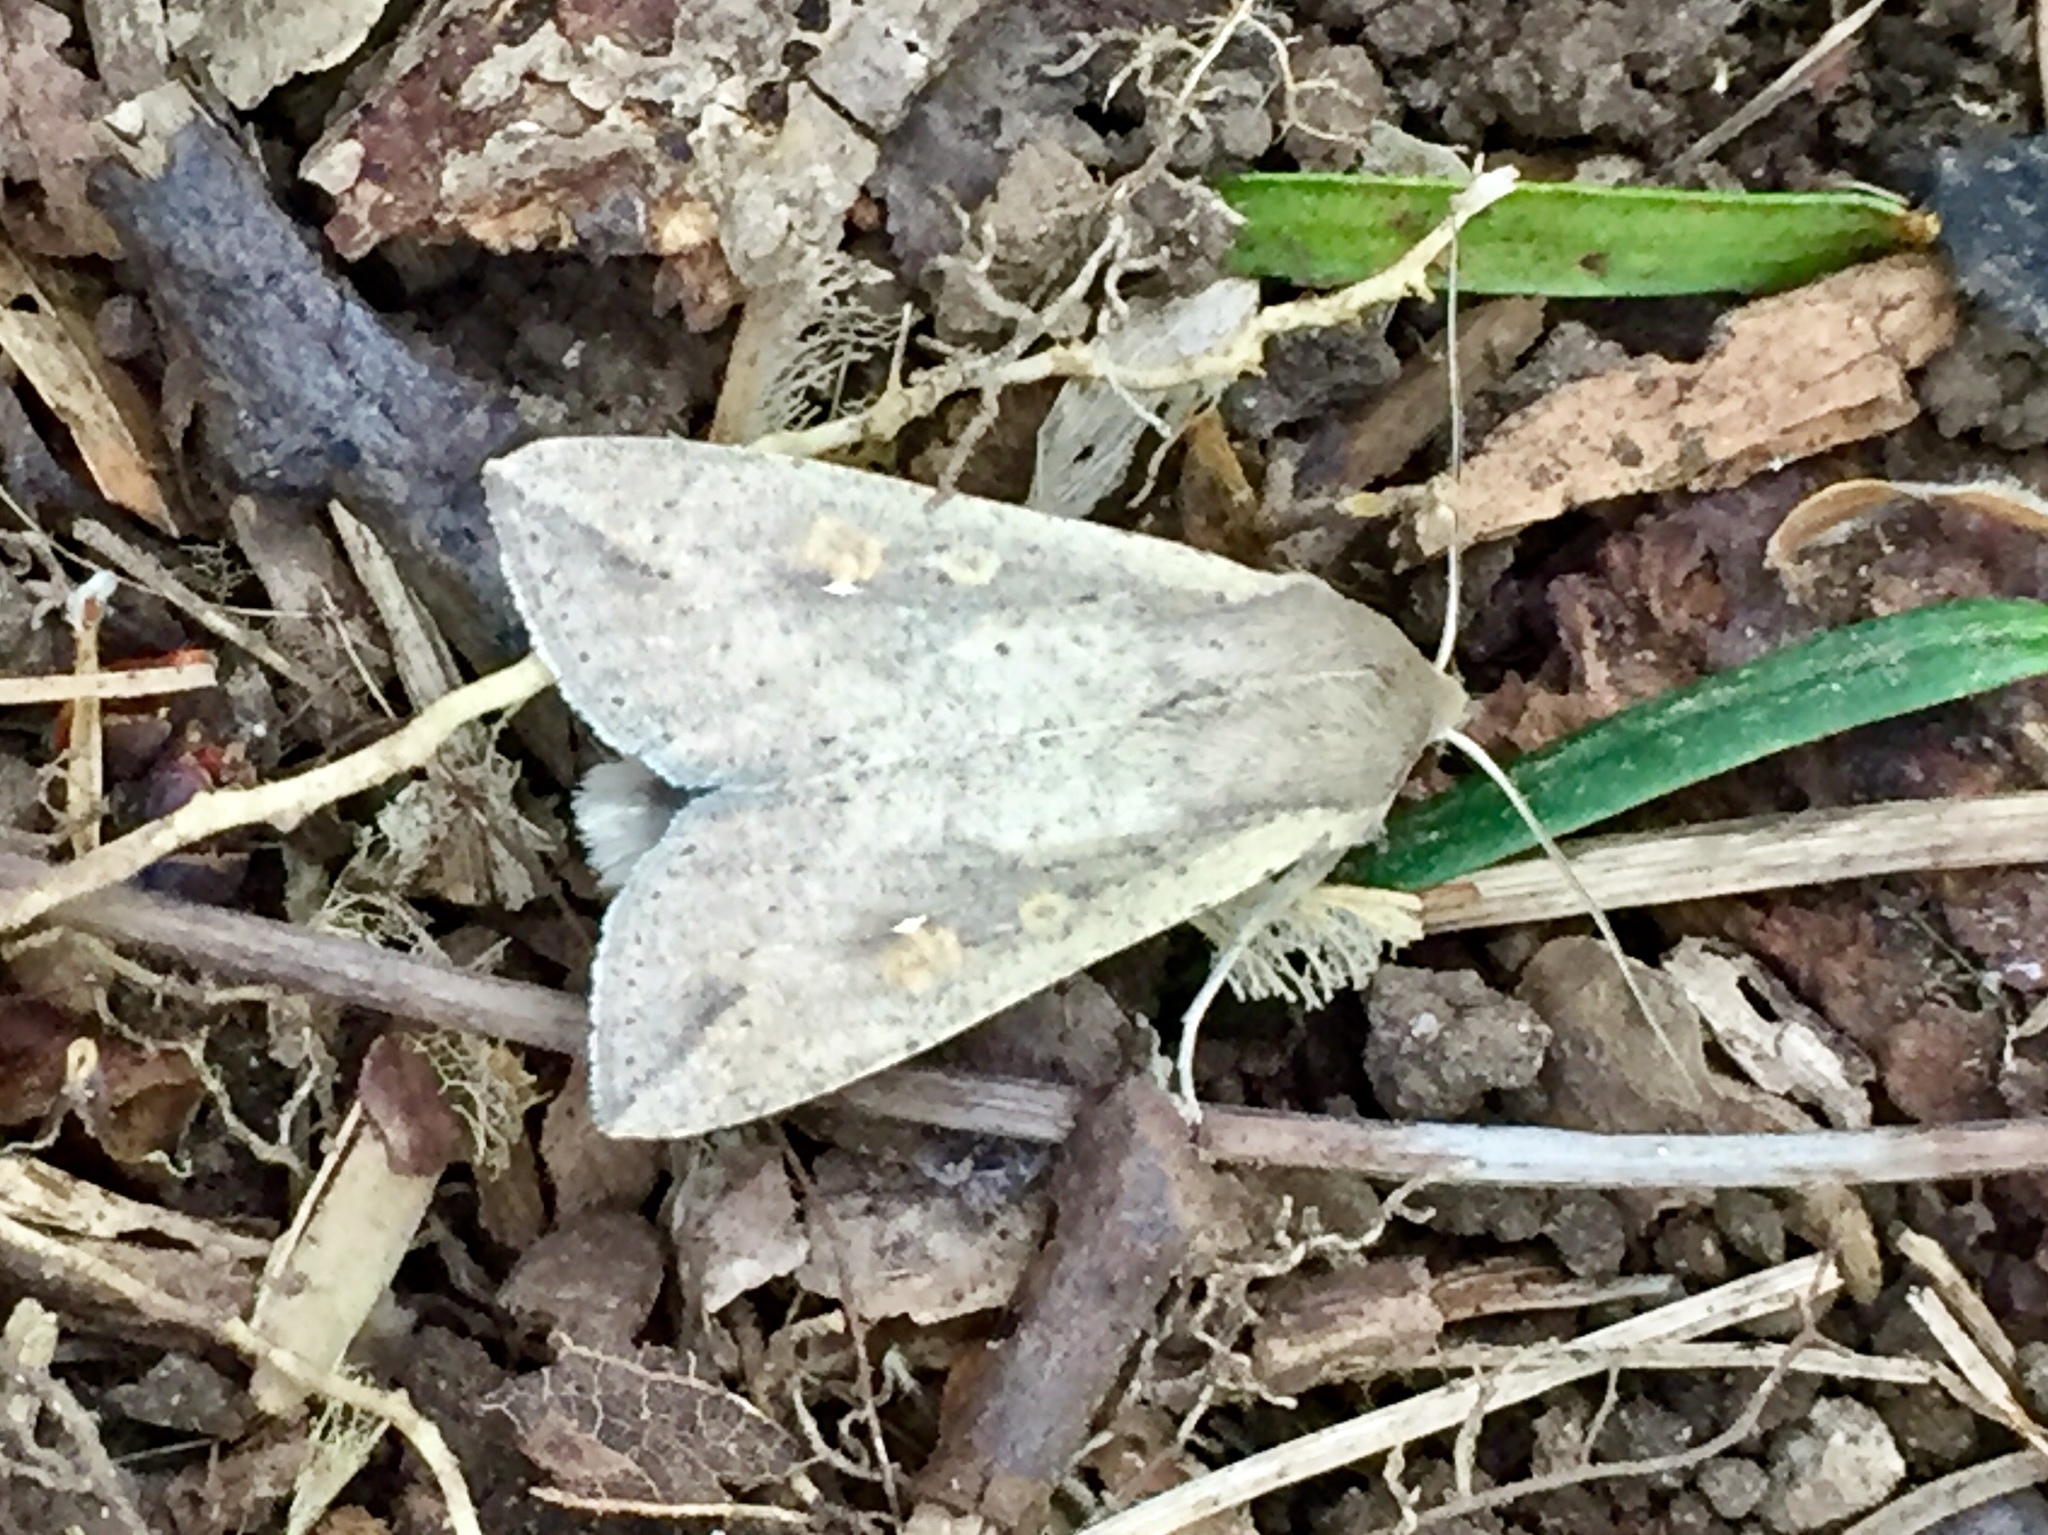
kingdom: Animalia
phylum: Arthropoda
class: Insecta
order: Lepidoptera
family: Noctuidae
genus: Mythimna
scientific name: Mythimna unipuncta
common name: White-speck
